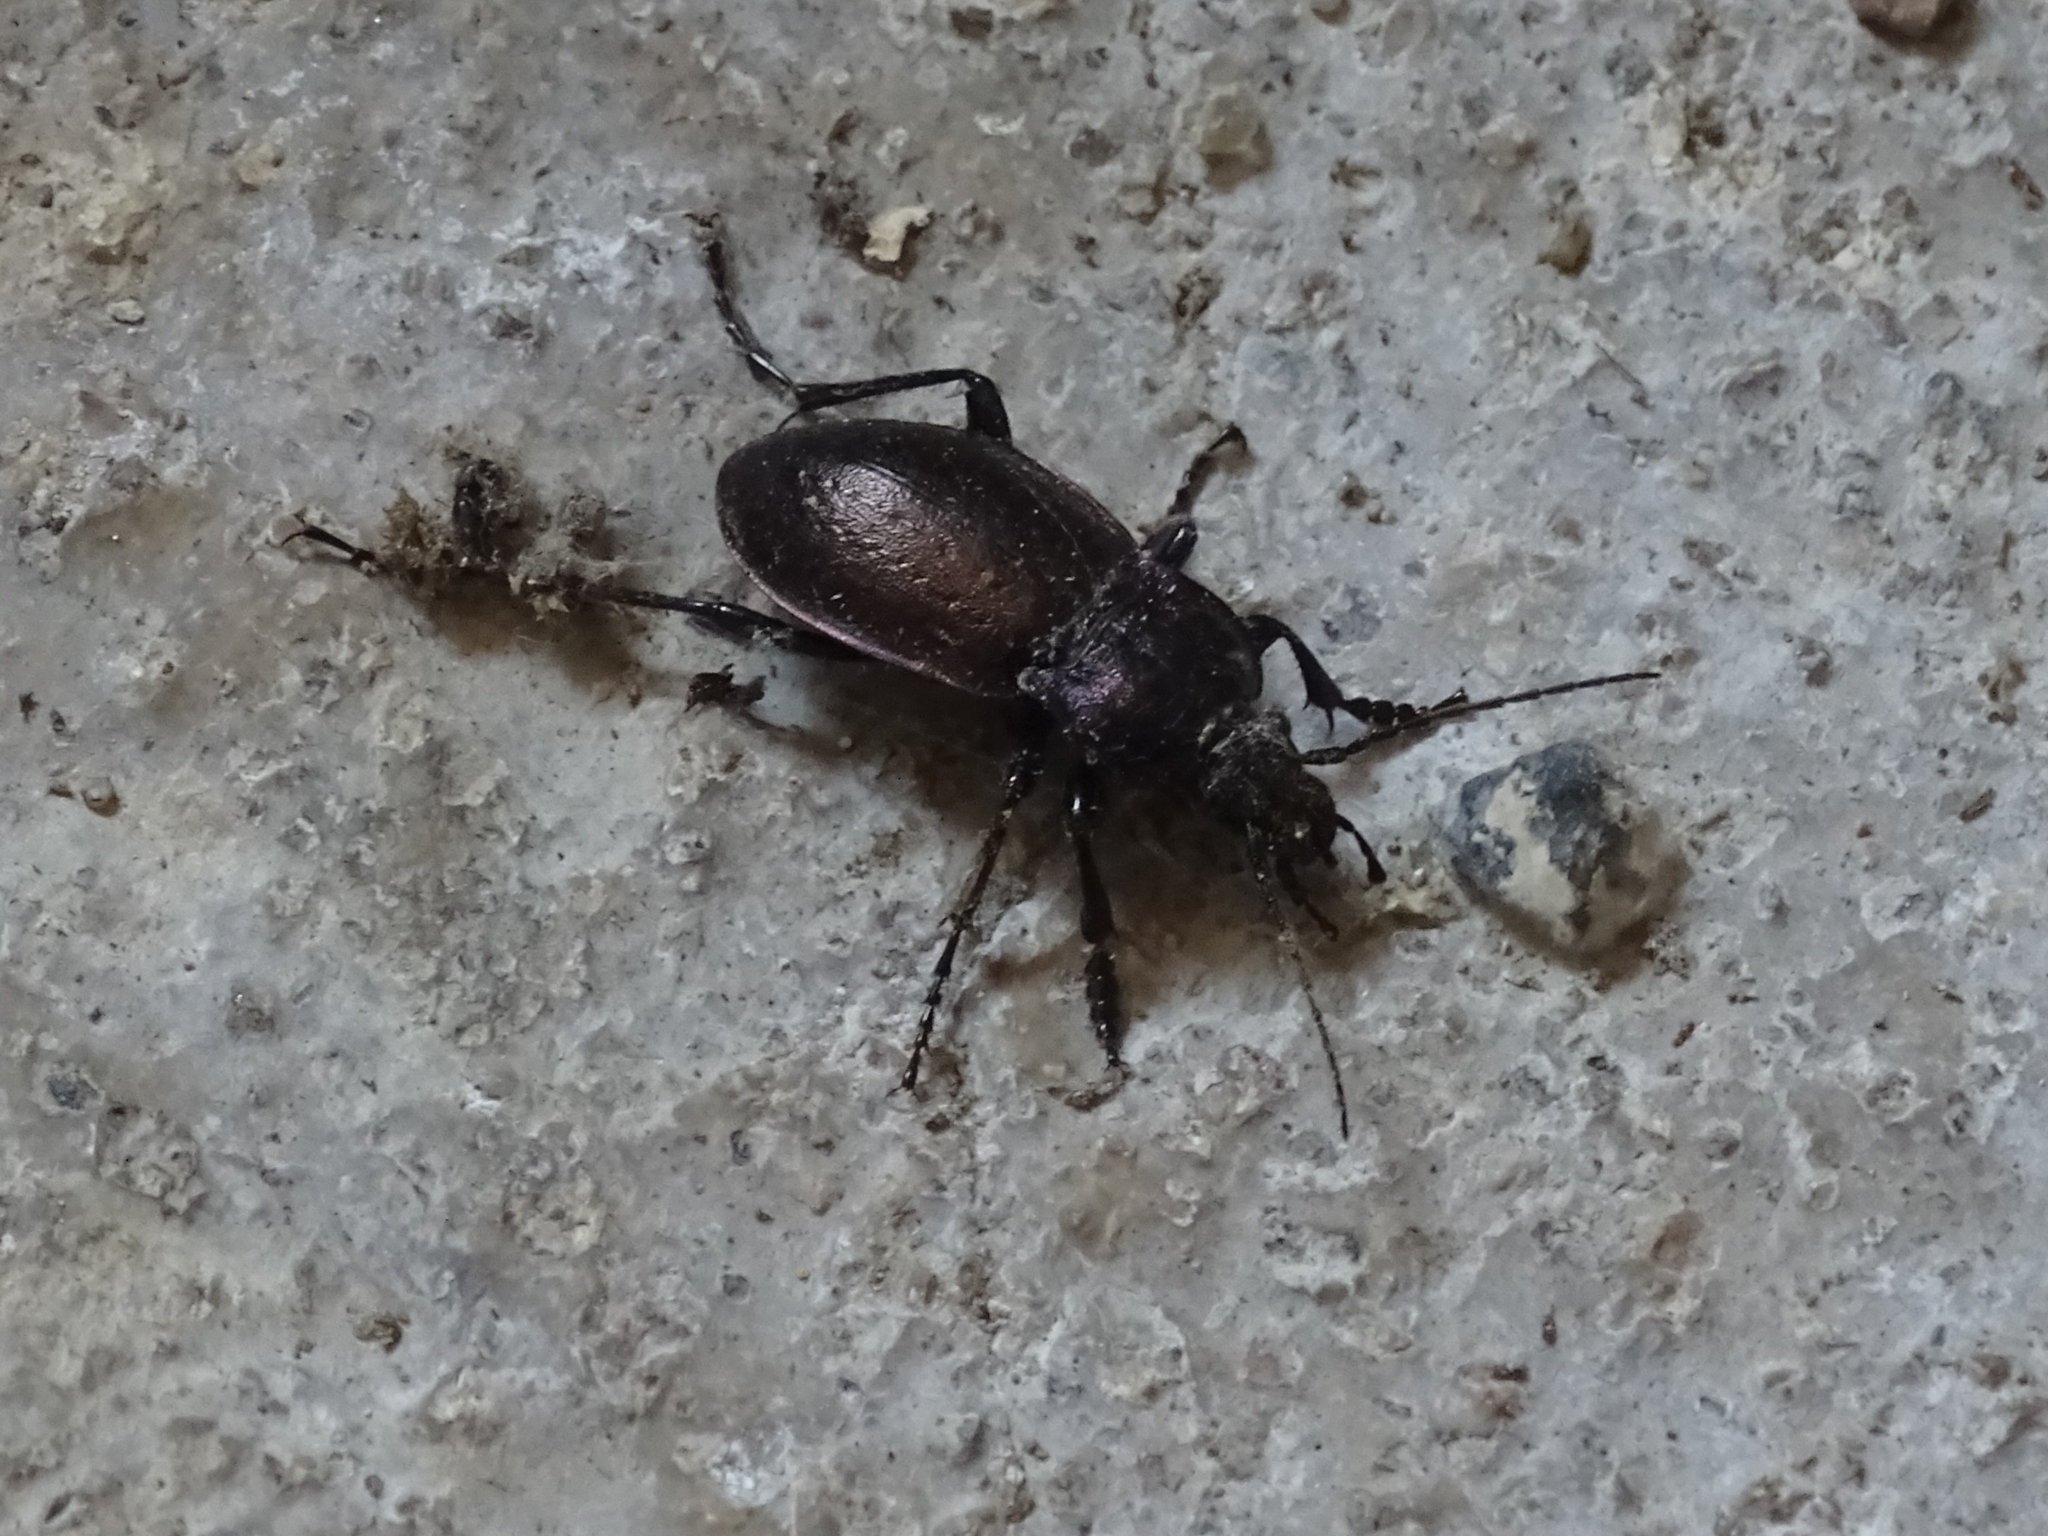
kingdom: Animalia
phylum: Arthropoda
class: Insecta
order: Coleoptera
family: Carabidae
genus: Carabus
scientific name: Carabus nemoralis
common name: European ground beetle
